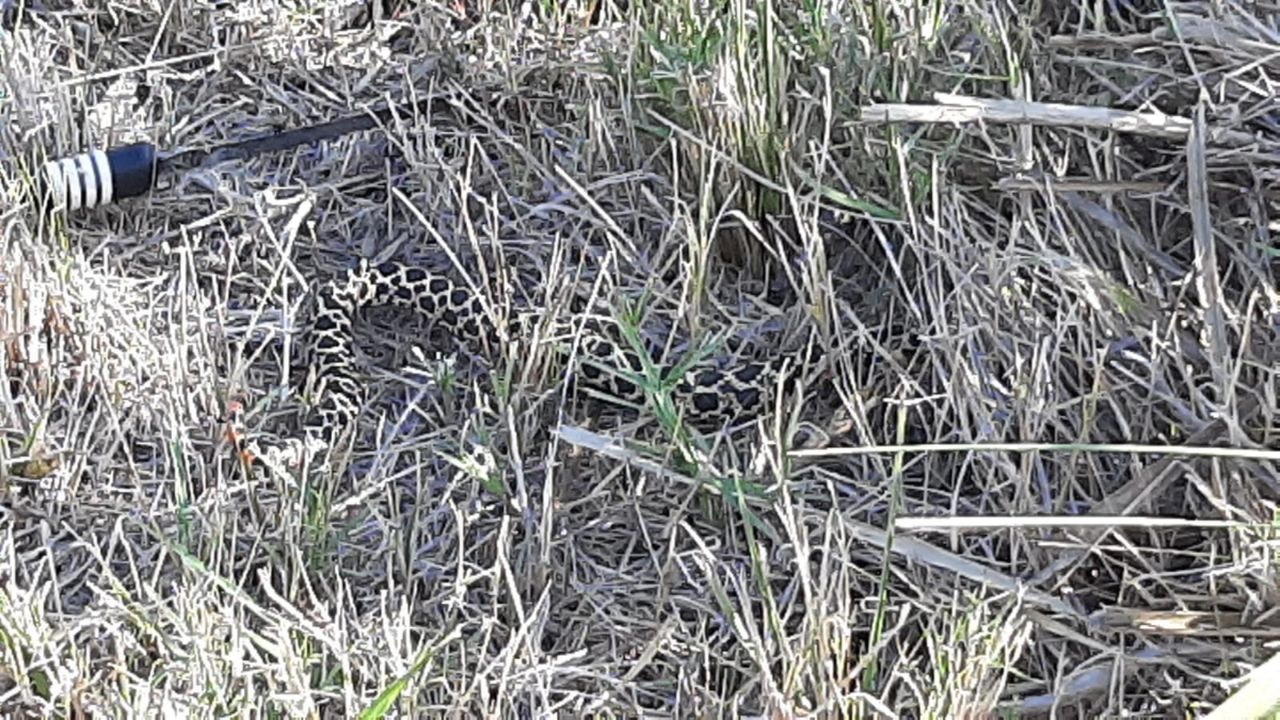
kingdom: Animalia
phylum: Chordata
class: Squamata
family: Colubridae
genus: Xenodon
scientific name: Xenodon dorbignyi
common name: South american hognose snake
